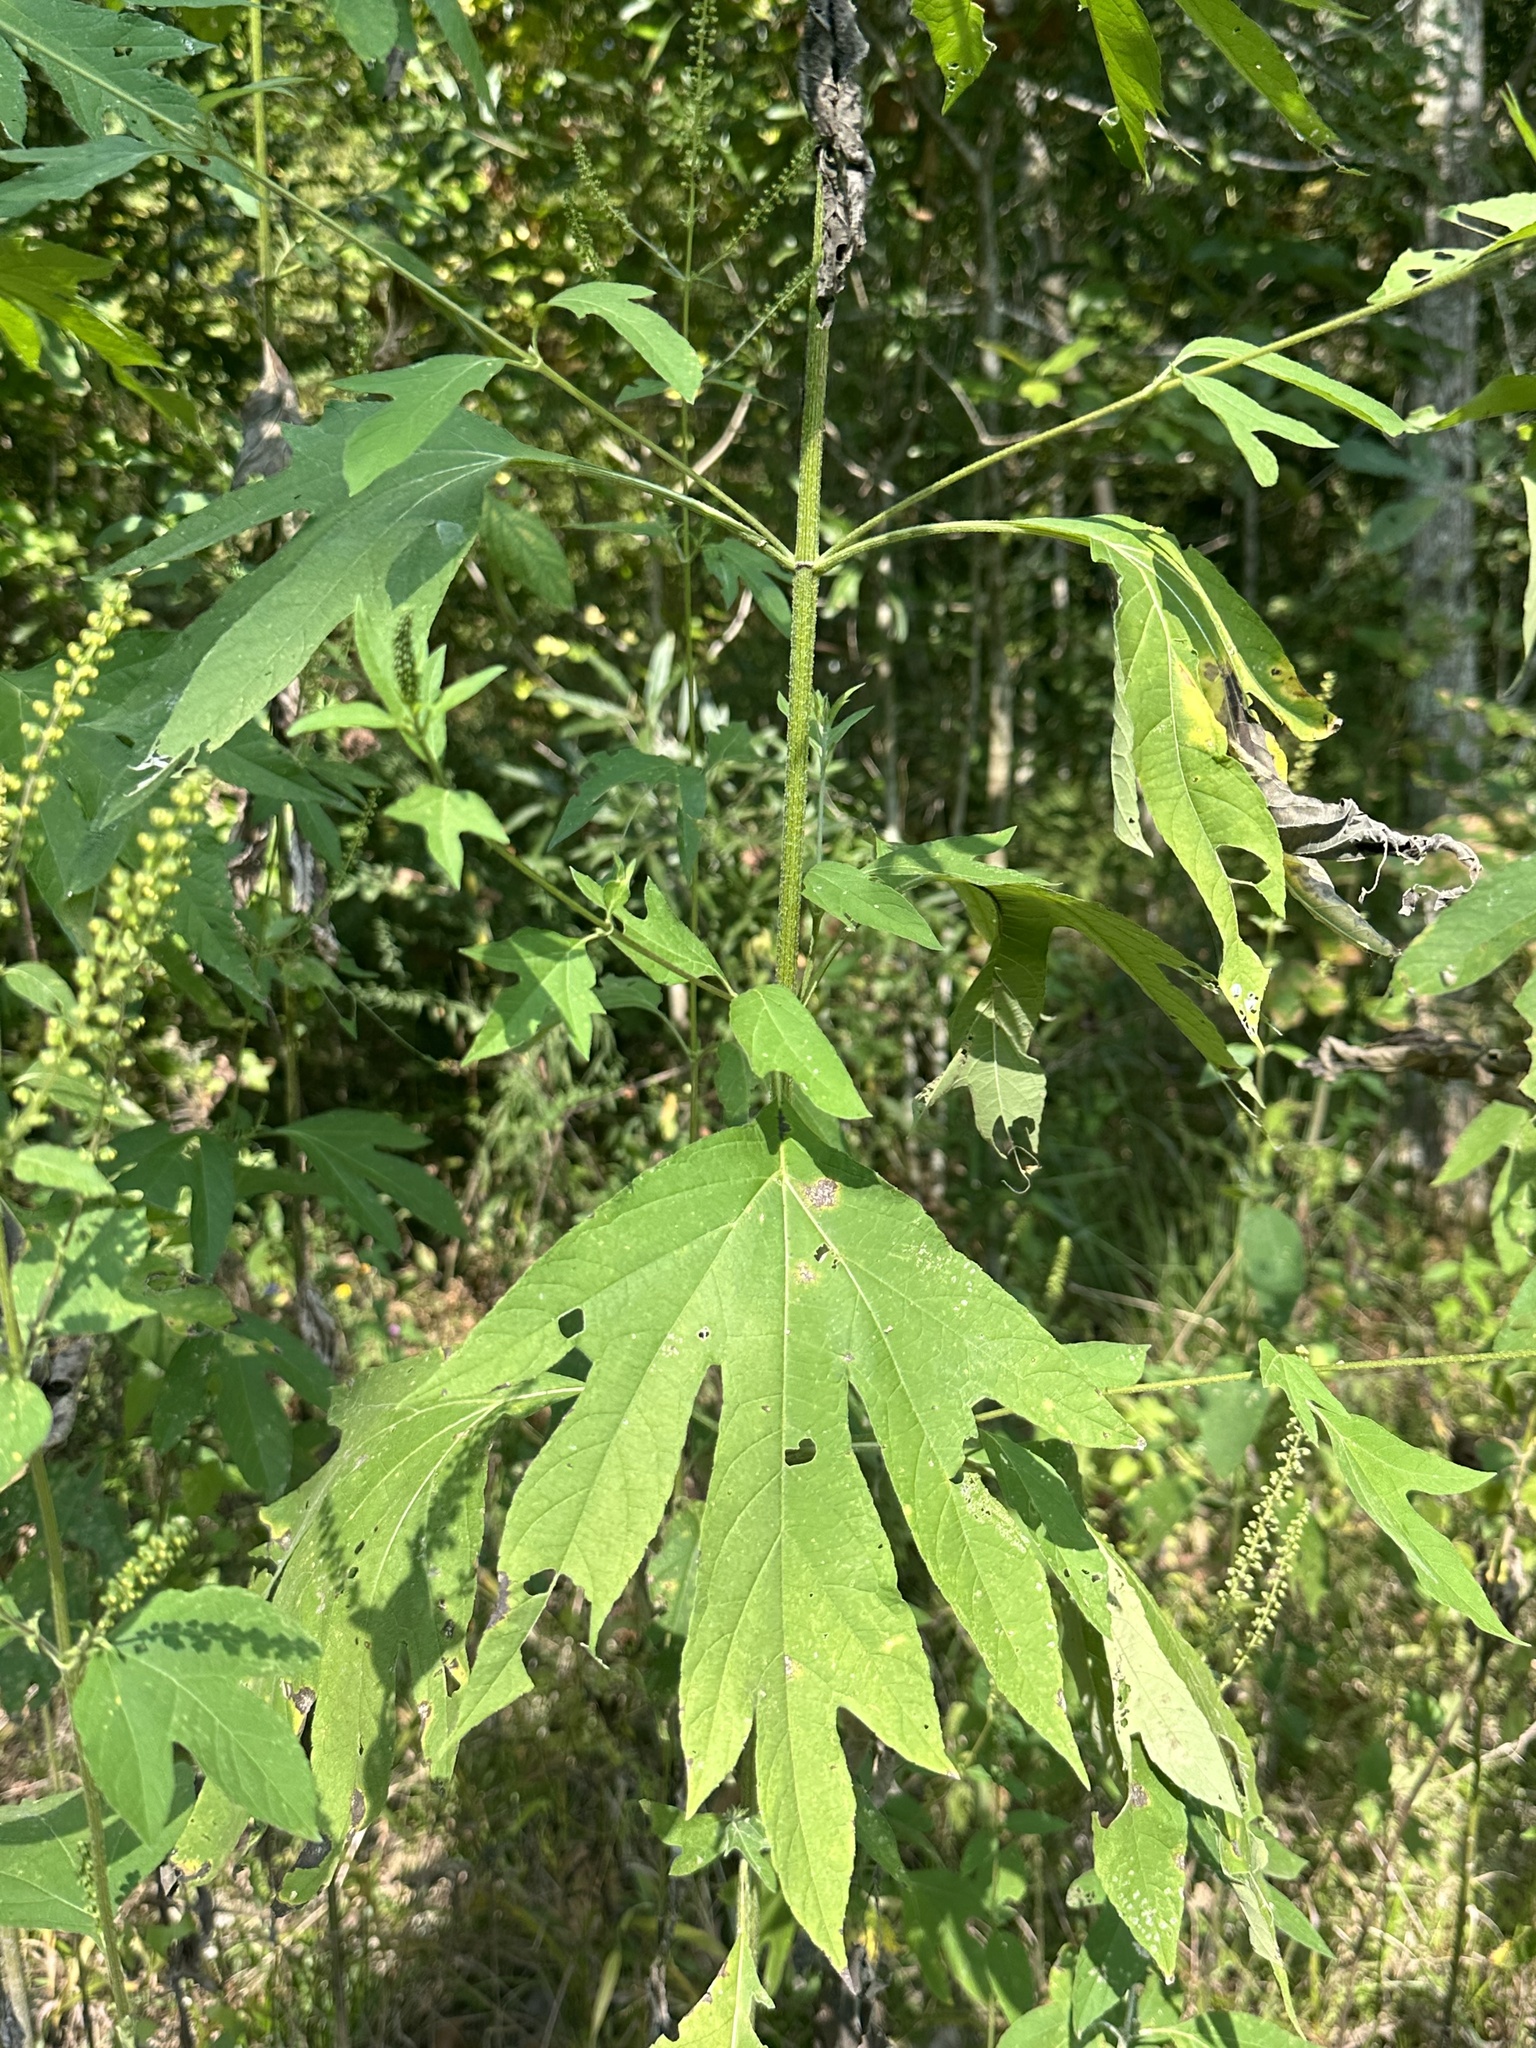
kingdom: Plantae
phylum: Tracheophyta
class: Magnoliopsida
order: Asterales
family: Asteraceae
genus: Ambrosia
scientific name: Ambrosia trifida
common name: Giant ragweed
